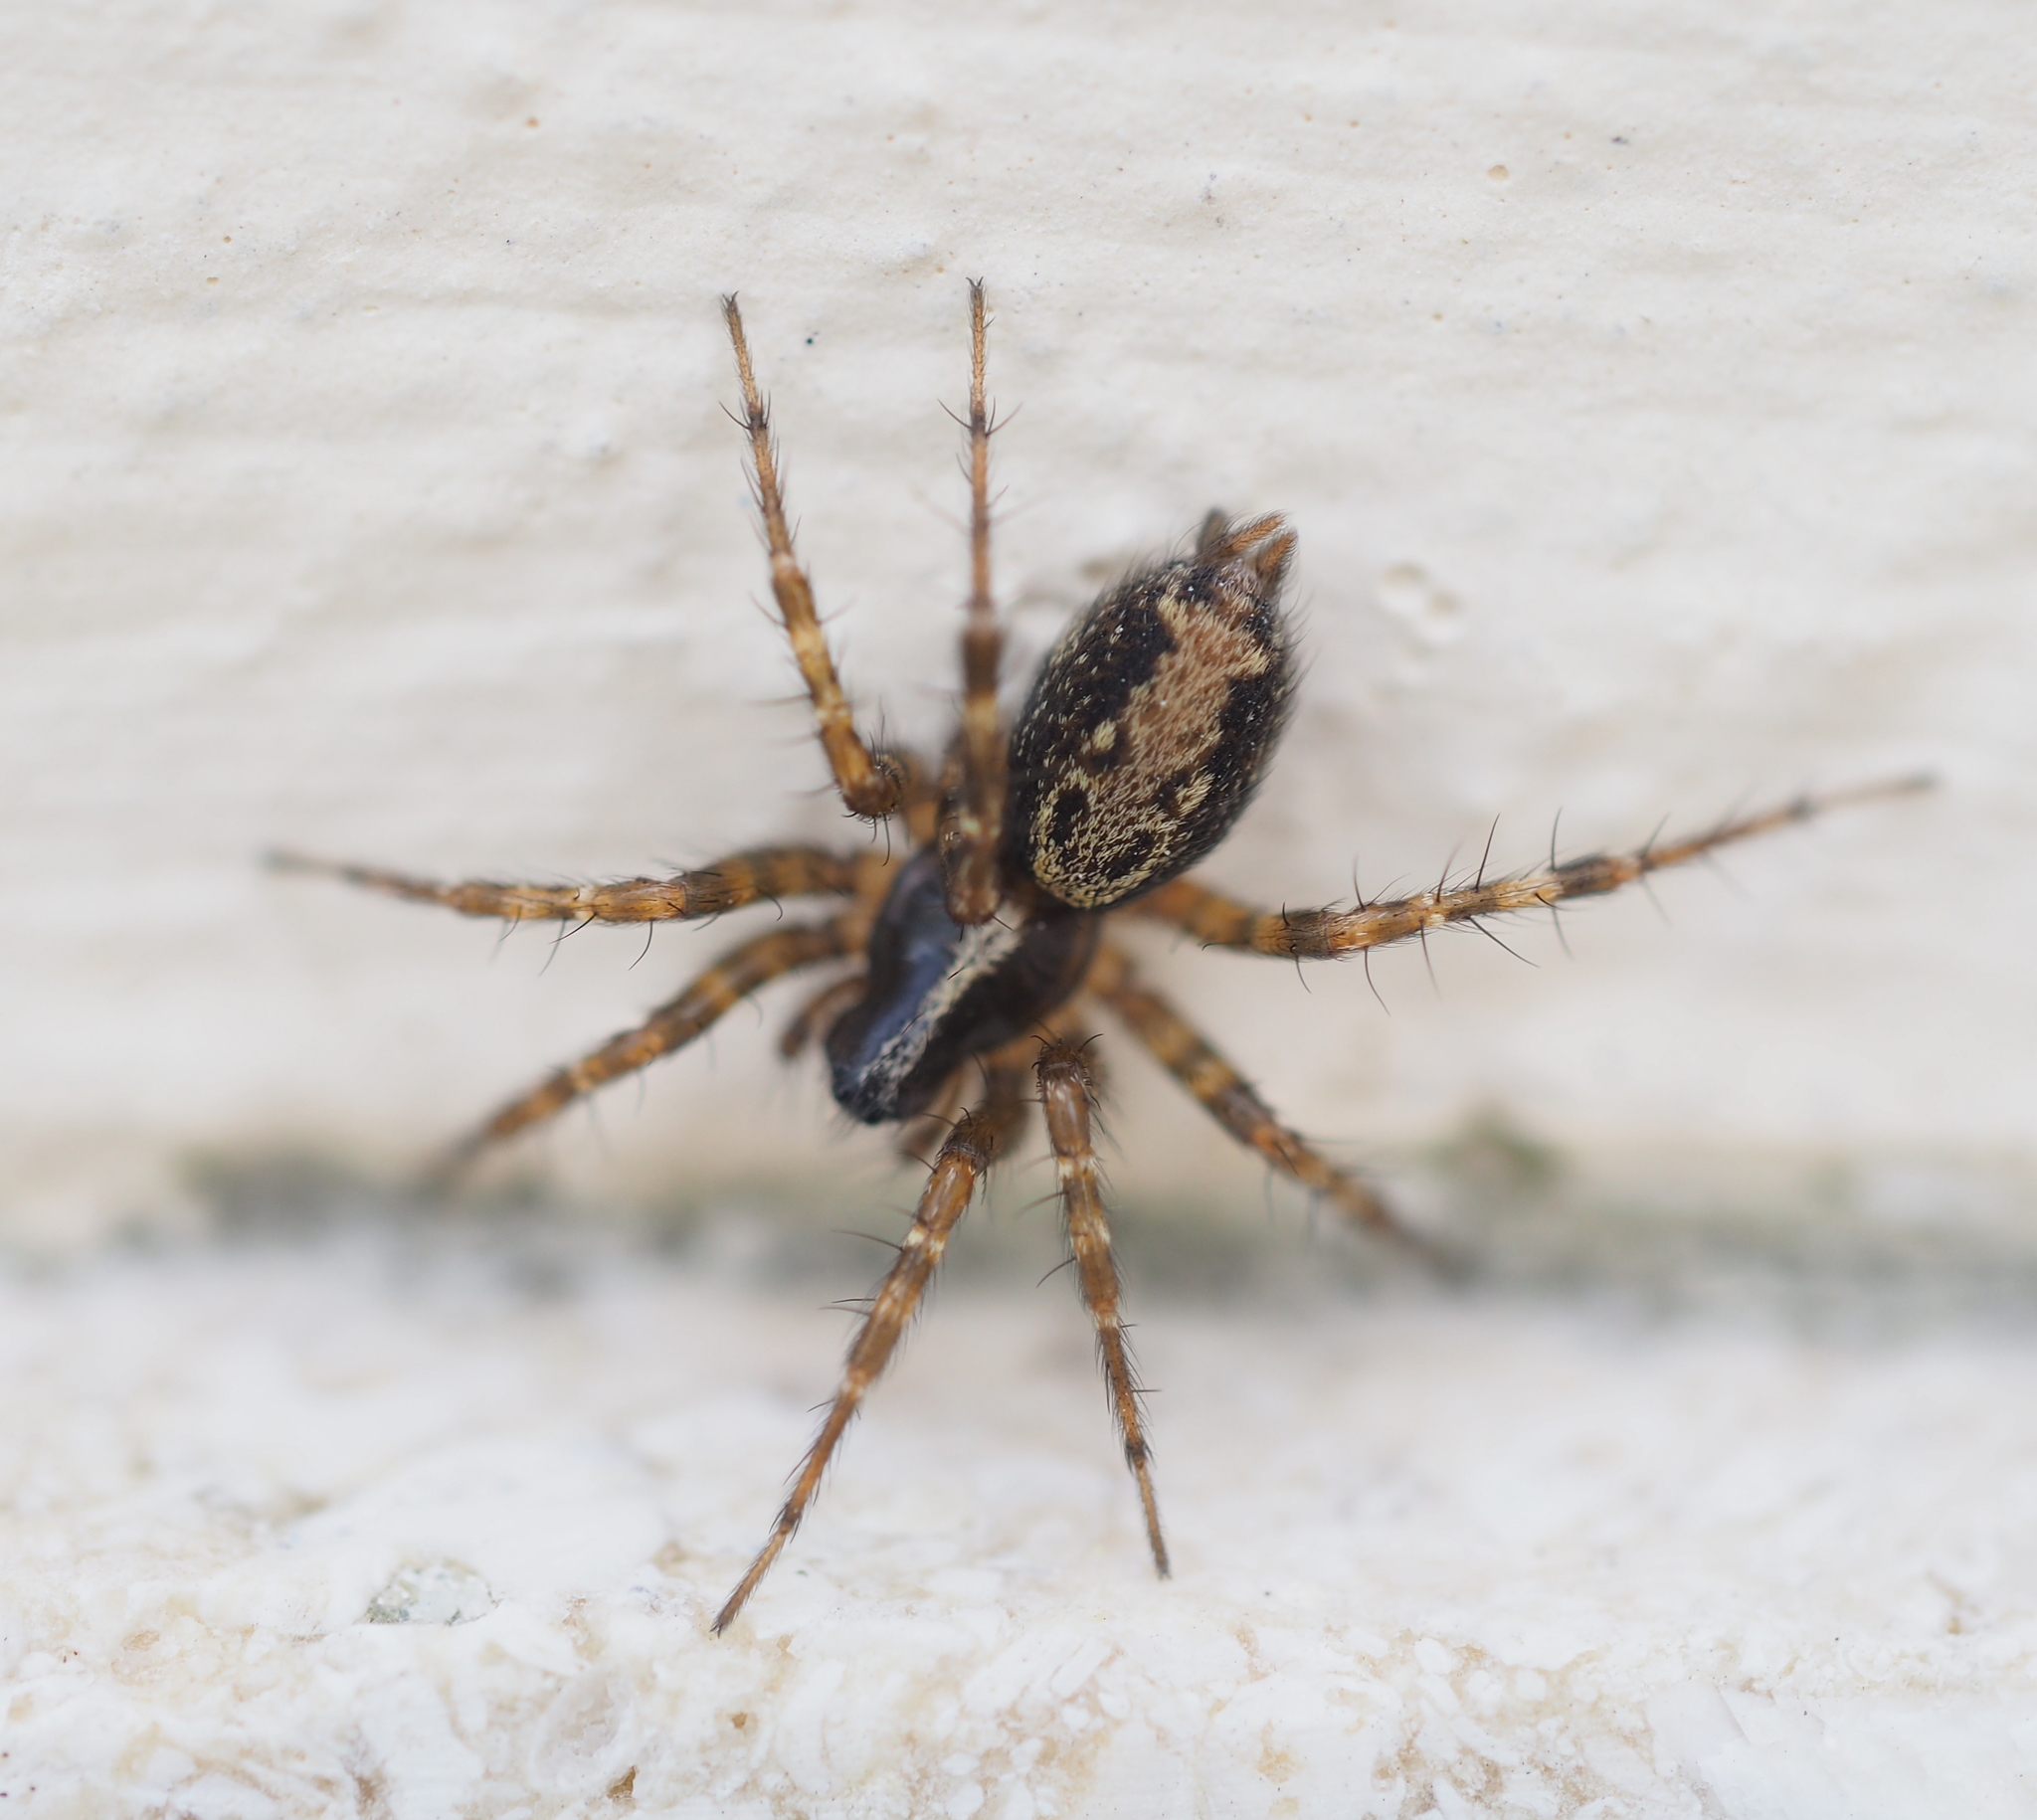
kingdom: Animalia
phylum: Arthropoda
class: Arachnida
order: Araneae
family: Agelenidae
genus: Textrix
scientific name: Textrix denticulata
